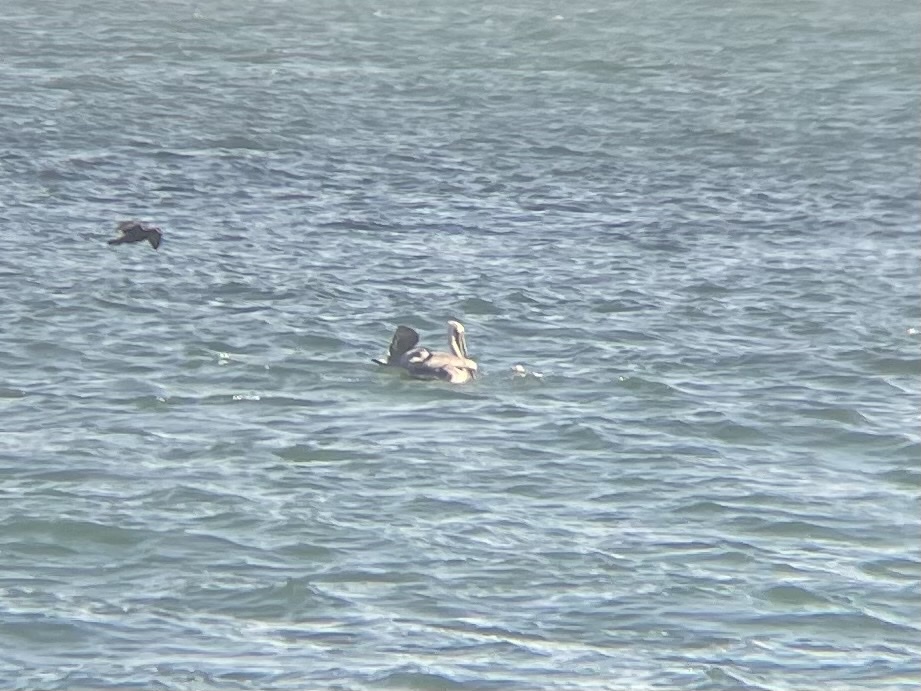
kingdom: Animalia
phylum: Chordata
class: Aves
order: Pelecaniformes
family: Pelecanidae
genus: Pelecanus
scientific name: Pelecanus occidentalis
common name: Brown pelican
